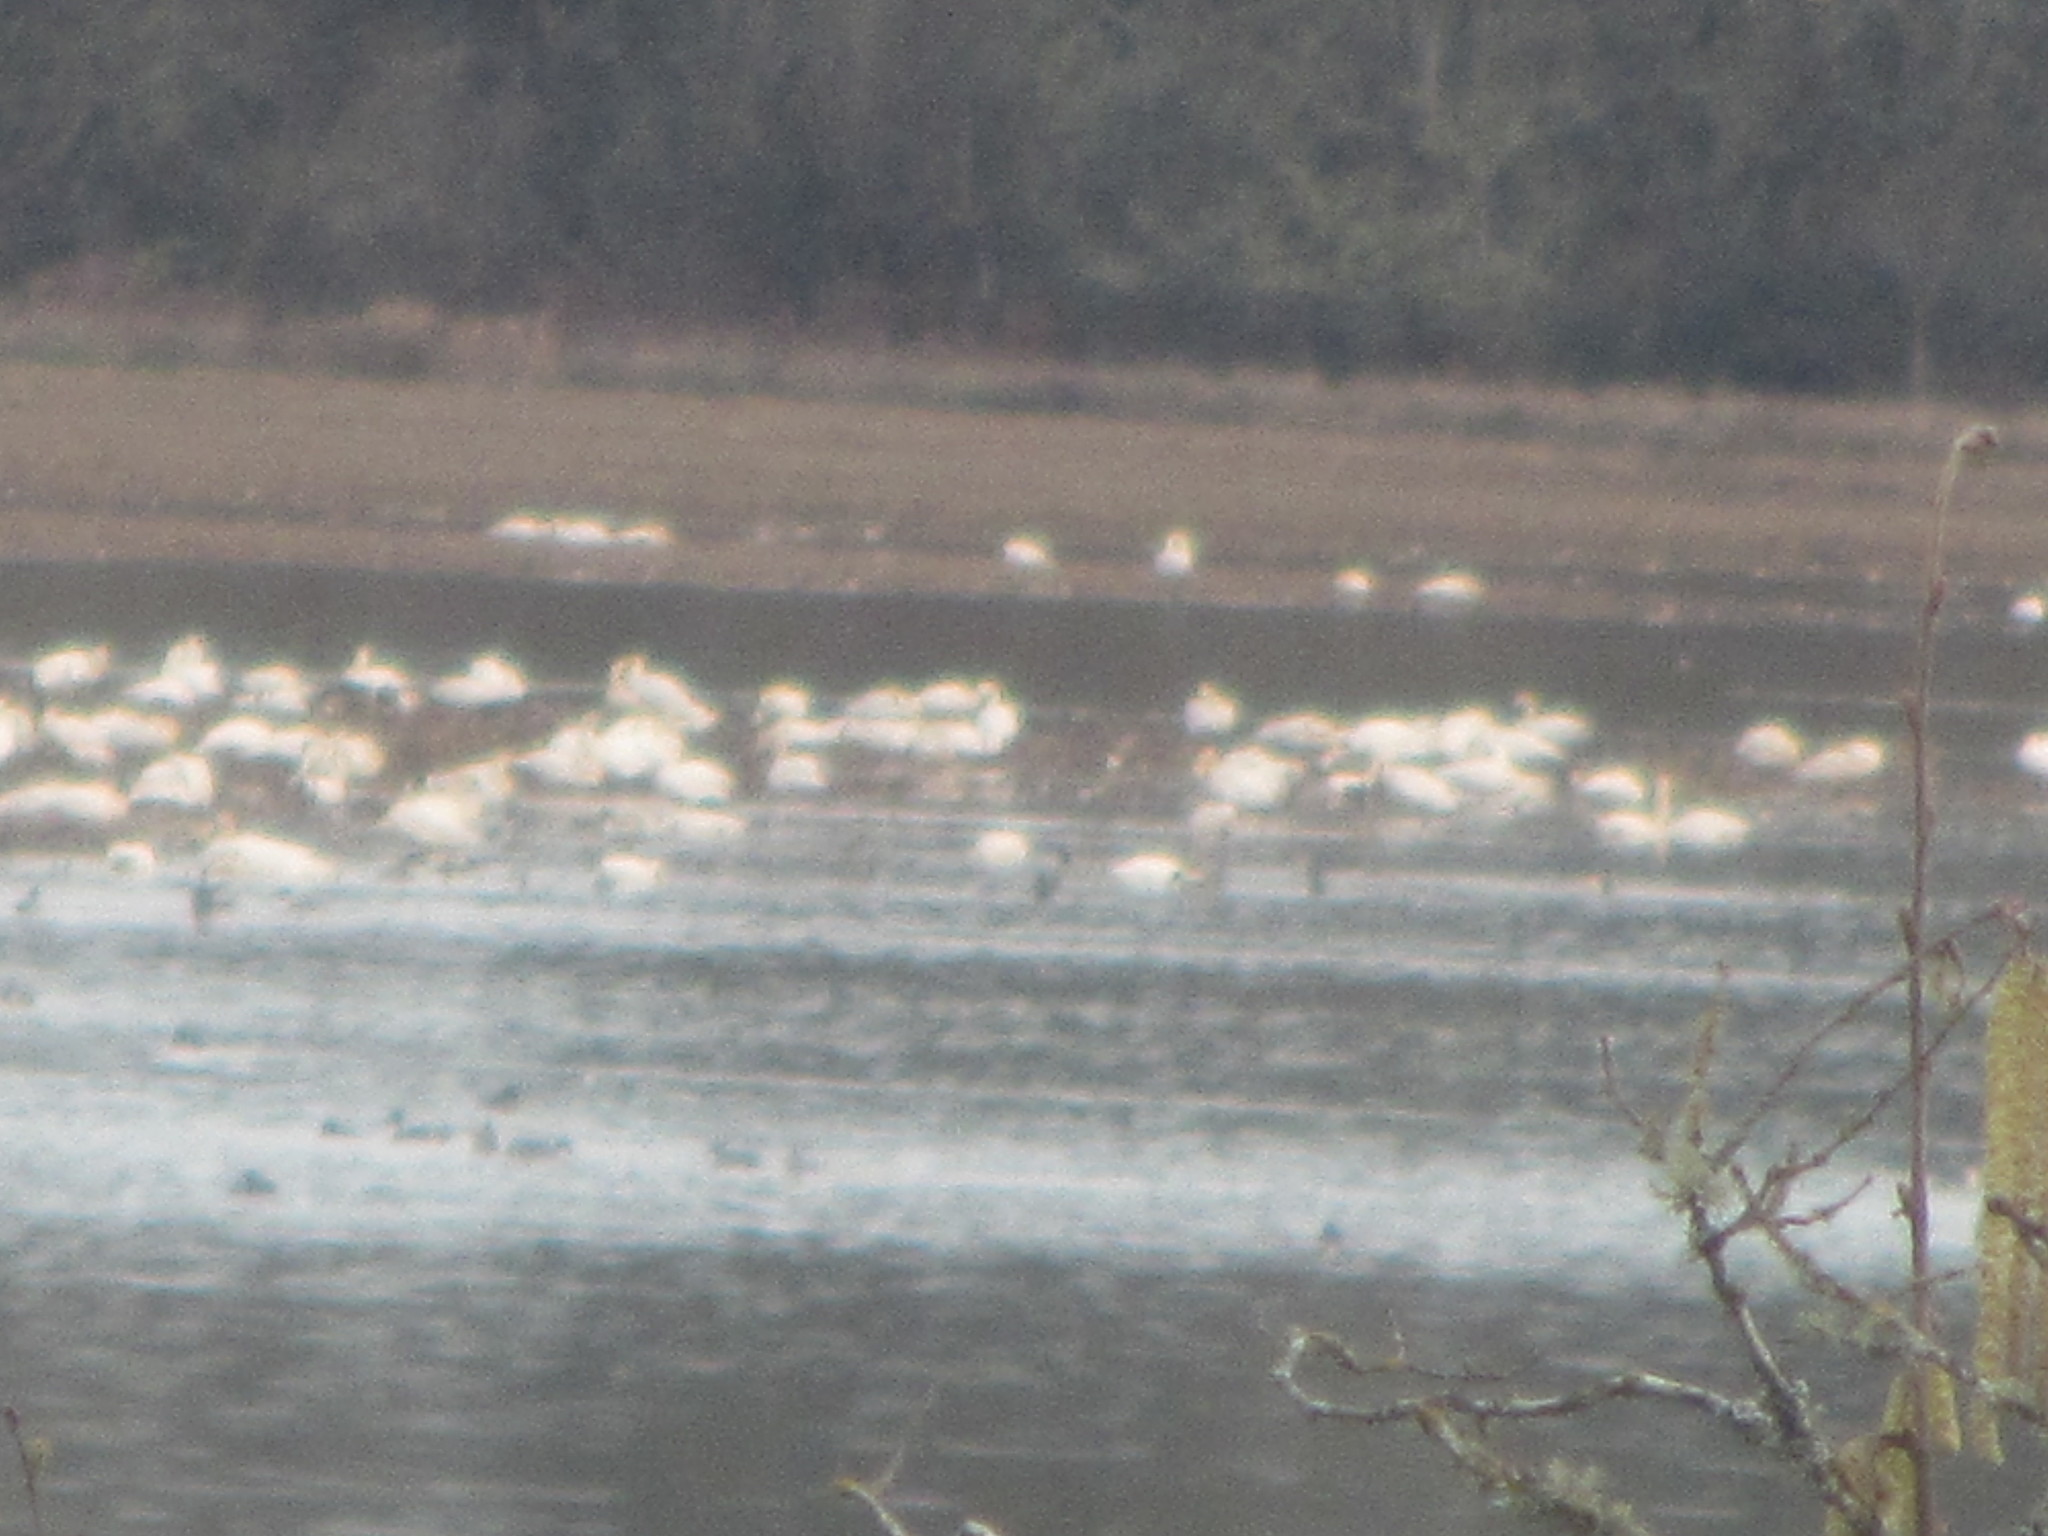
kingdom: Animalia
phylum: Chordata
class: Aves
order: Anseriformes
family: Anatidae
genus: Cygnus
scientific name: Cygnus columbianus
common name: Tundra swan
